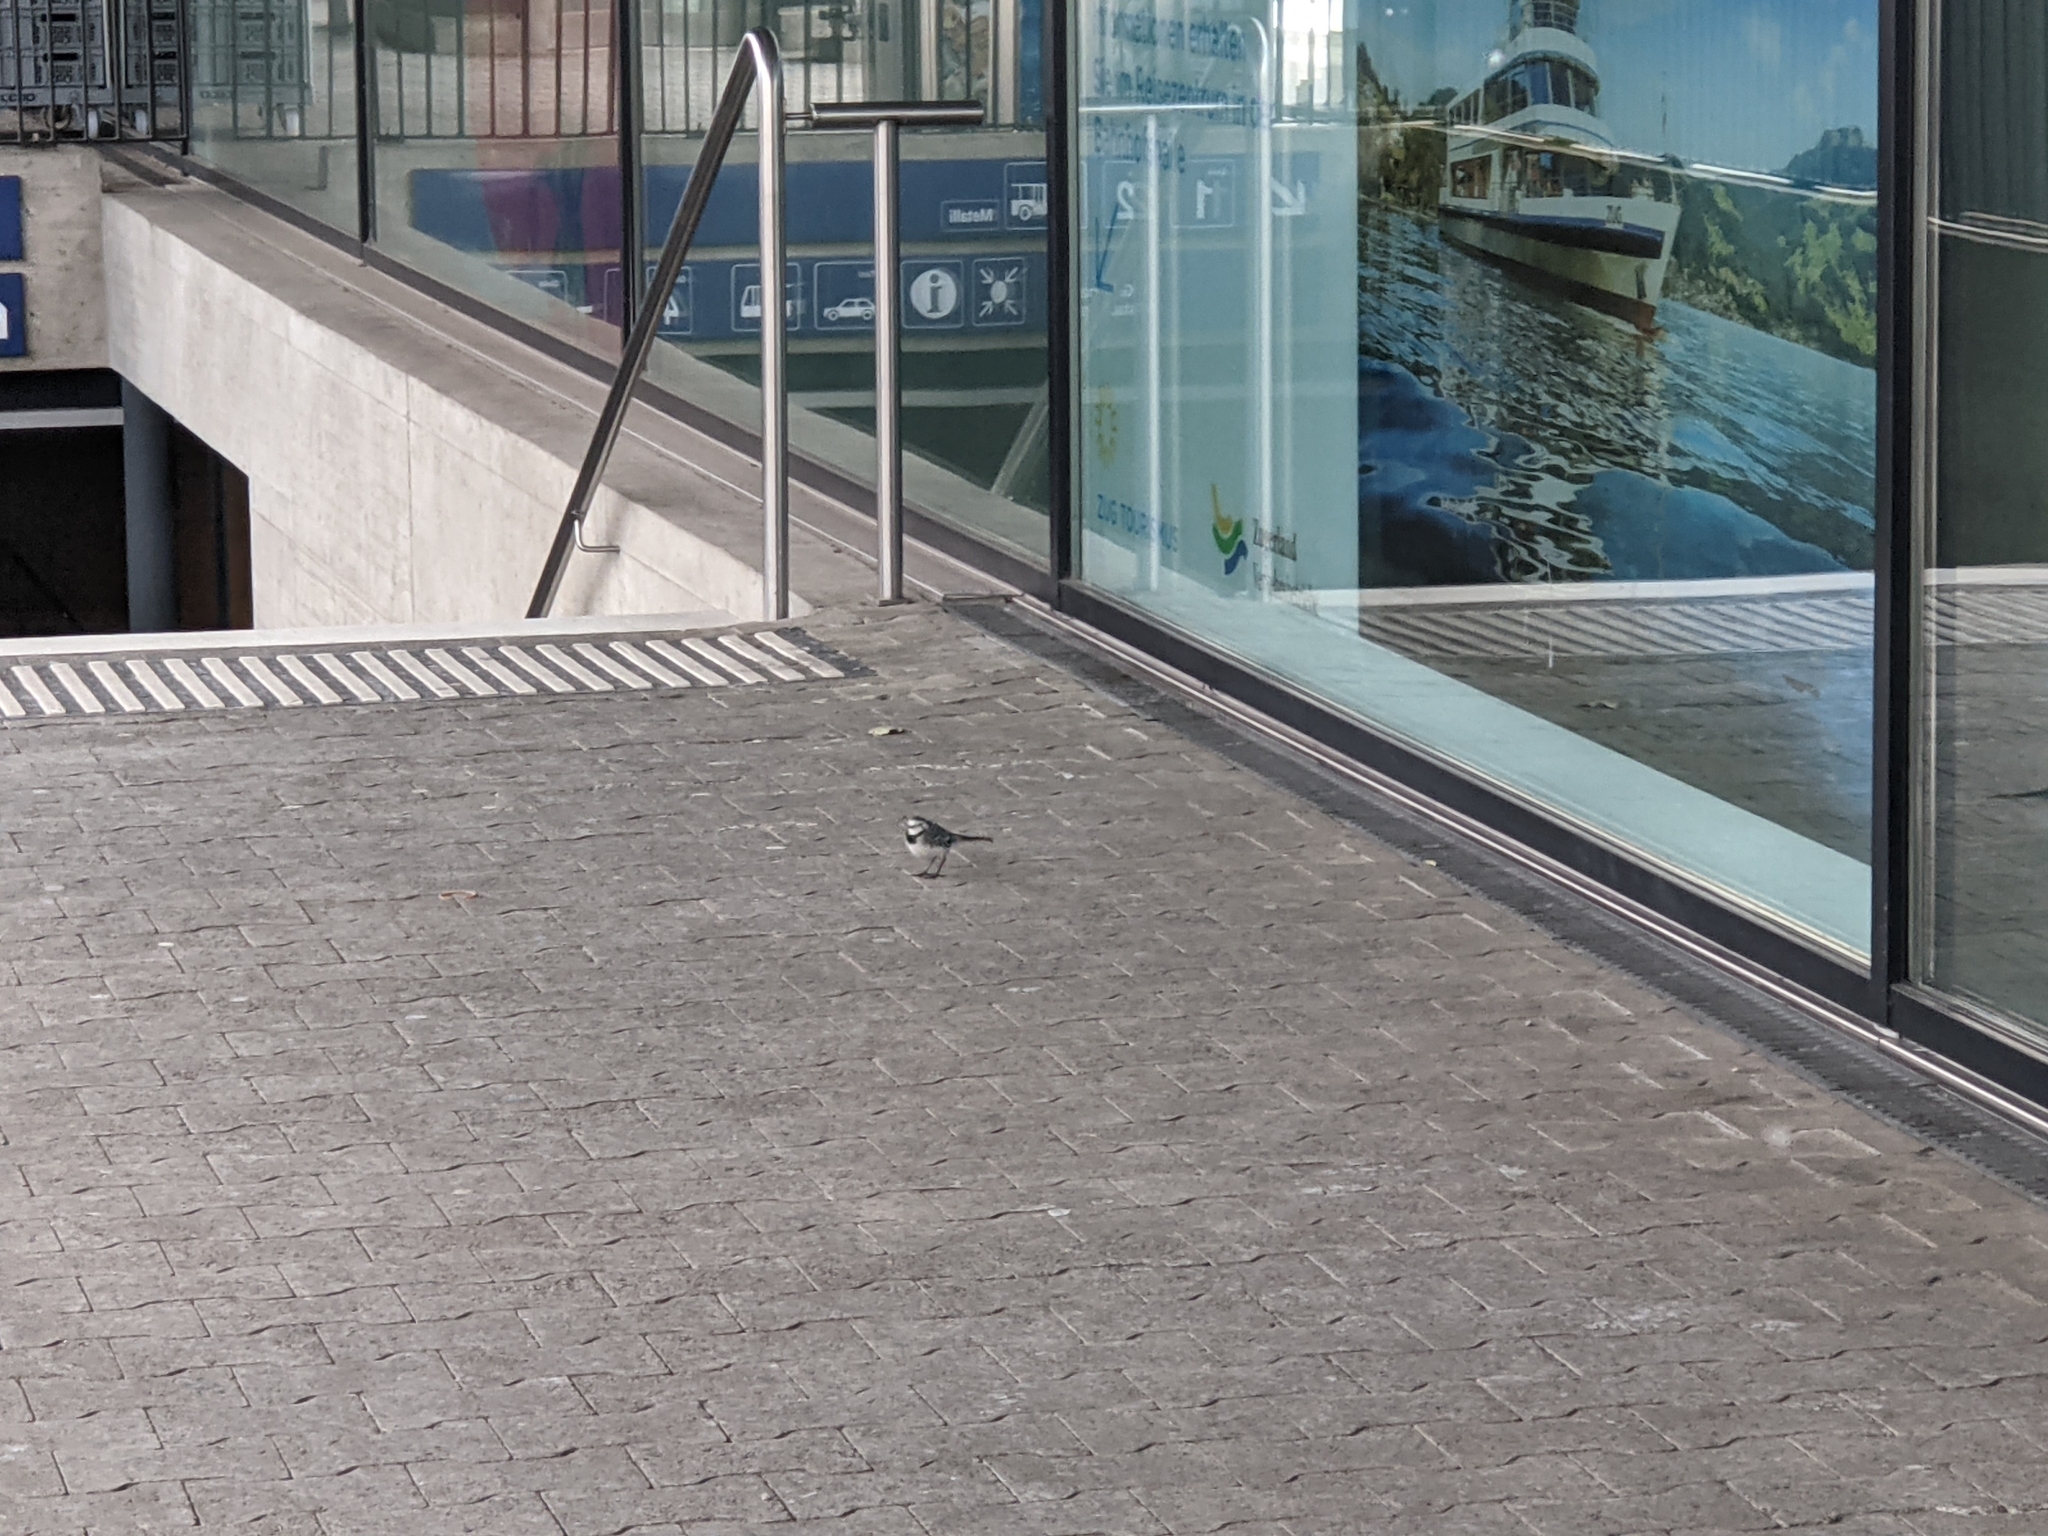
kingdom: Animalia
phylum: Chordata
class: Aves
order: Passeriformes
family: Motacillidae
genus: Motacilla
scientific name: Motacilla alba
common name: White wagtail
